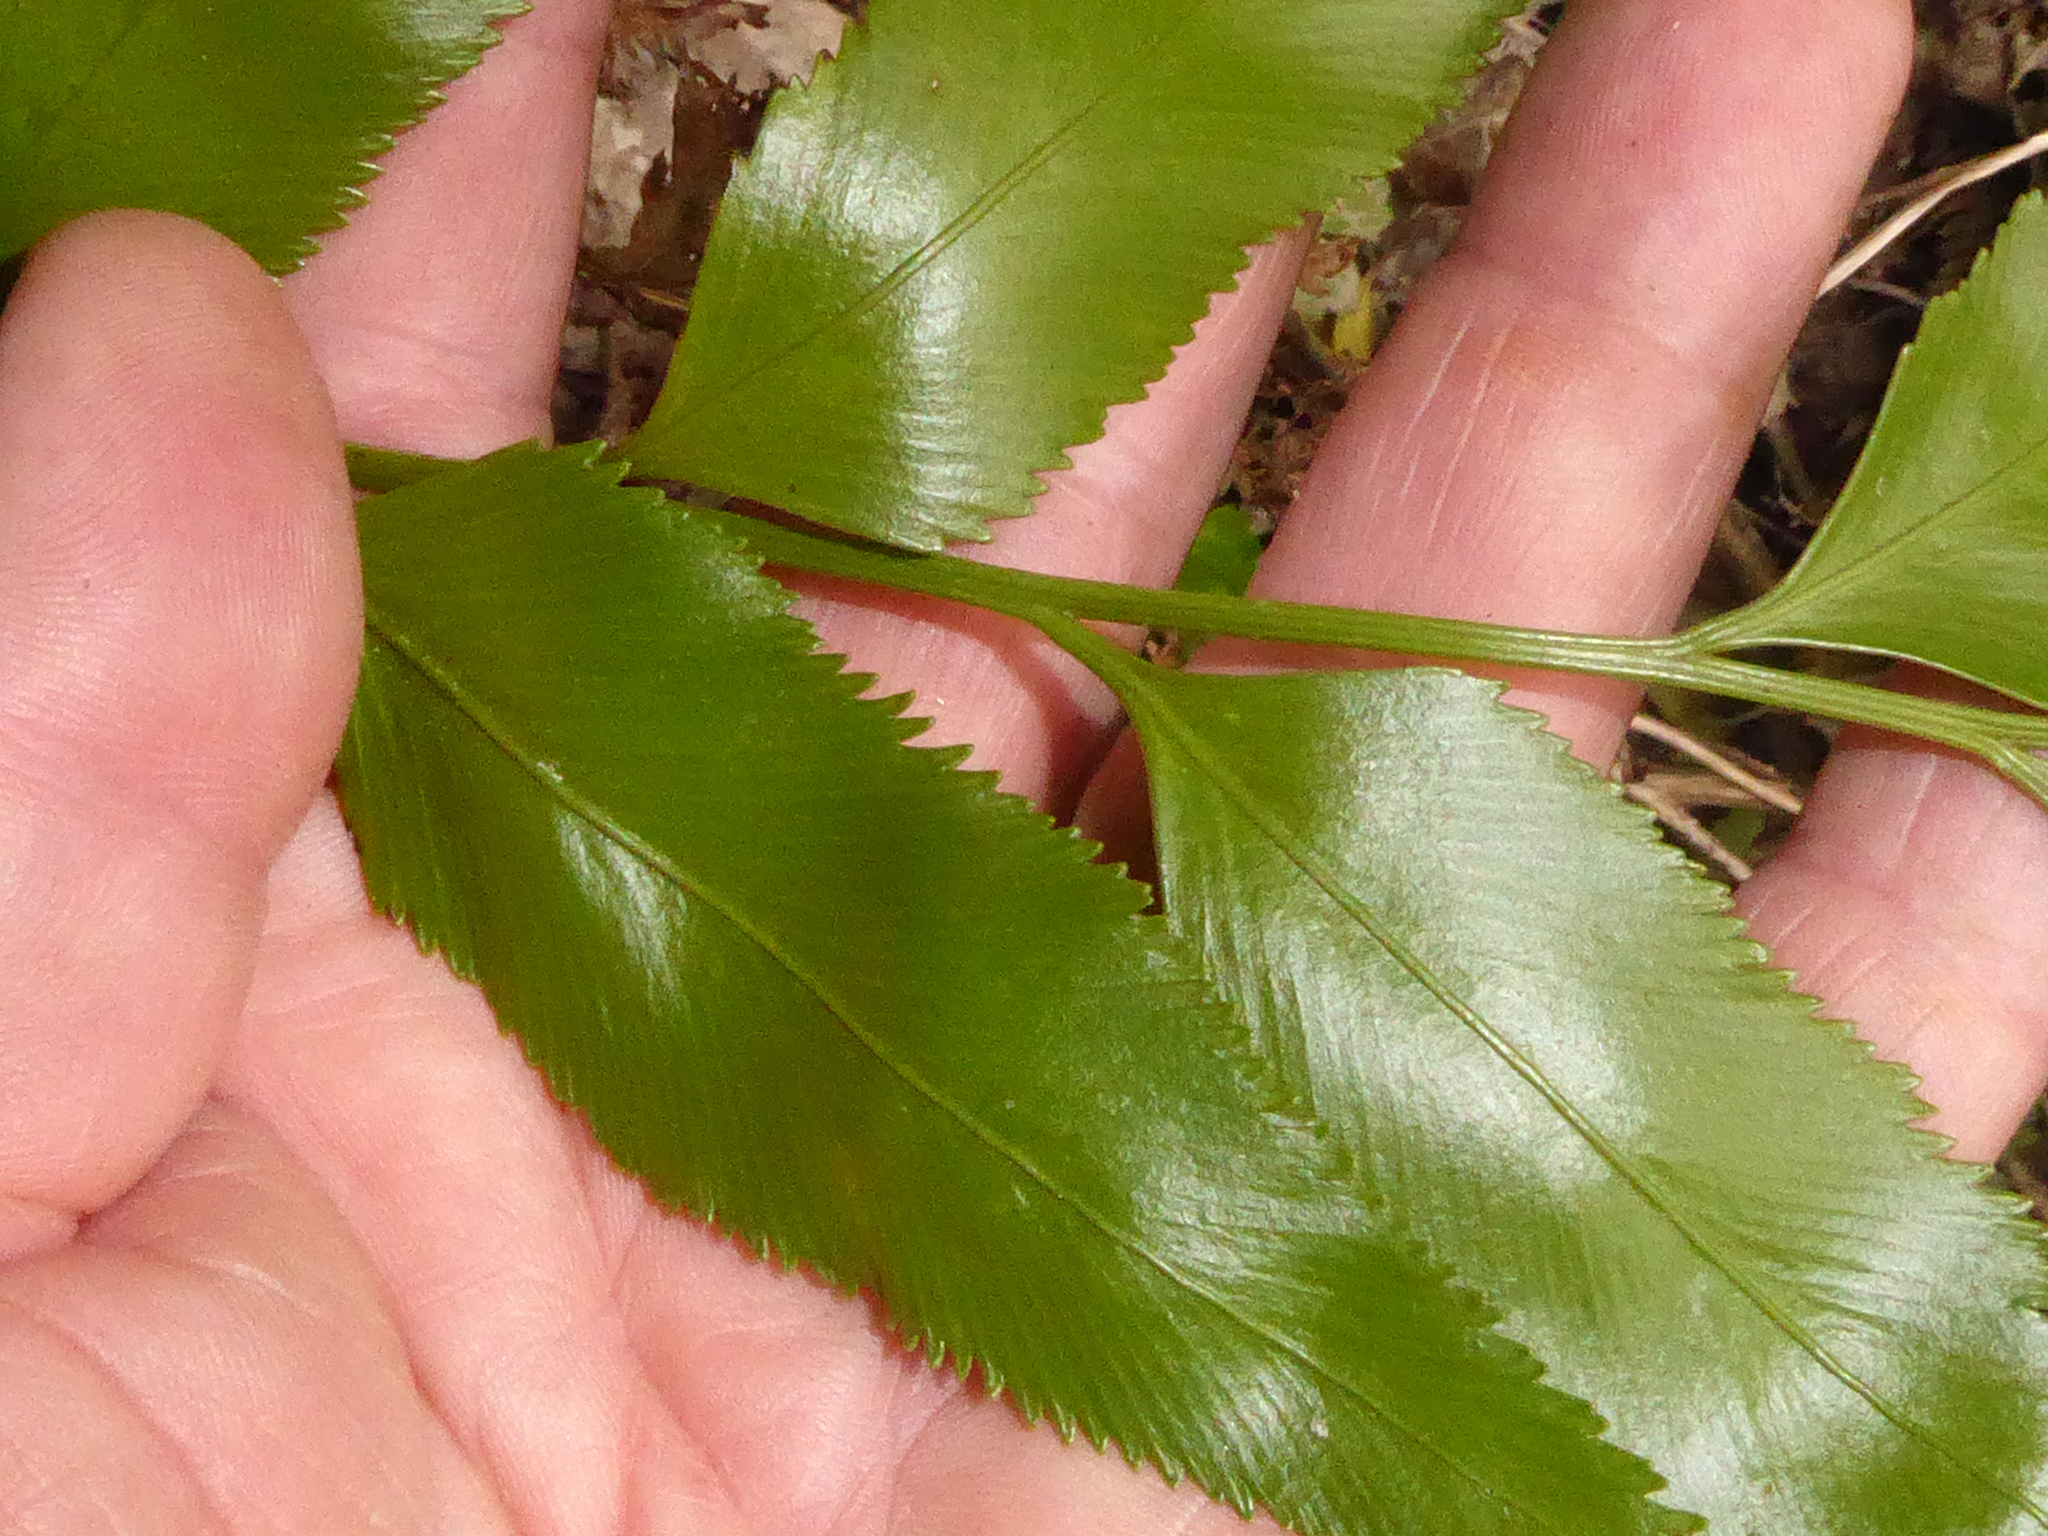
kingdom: Plantae
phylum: Tracheophyta
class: Polypodiopsida
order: Polypodiales
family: Aspleniaceae
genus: Asplenium
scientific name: Asplenium lepidotum
